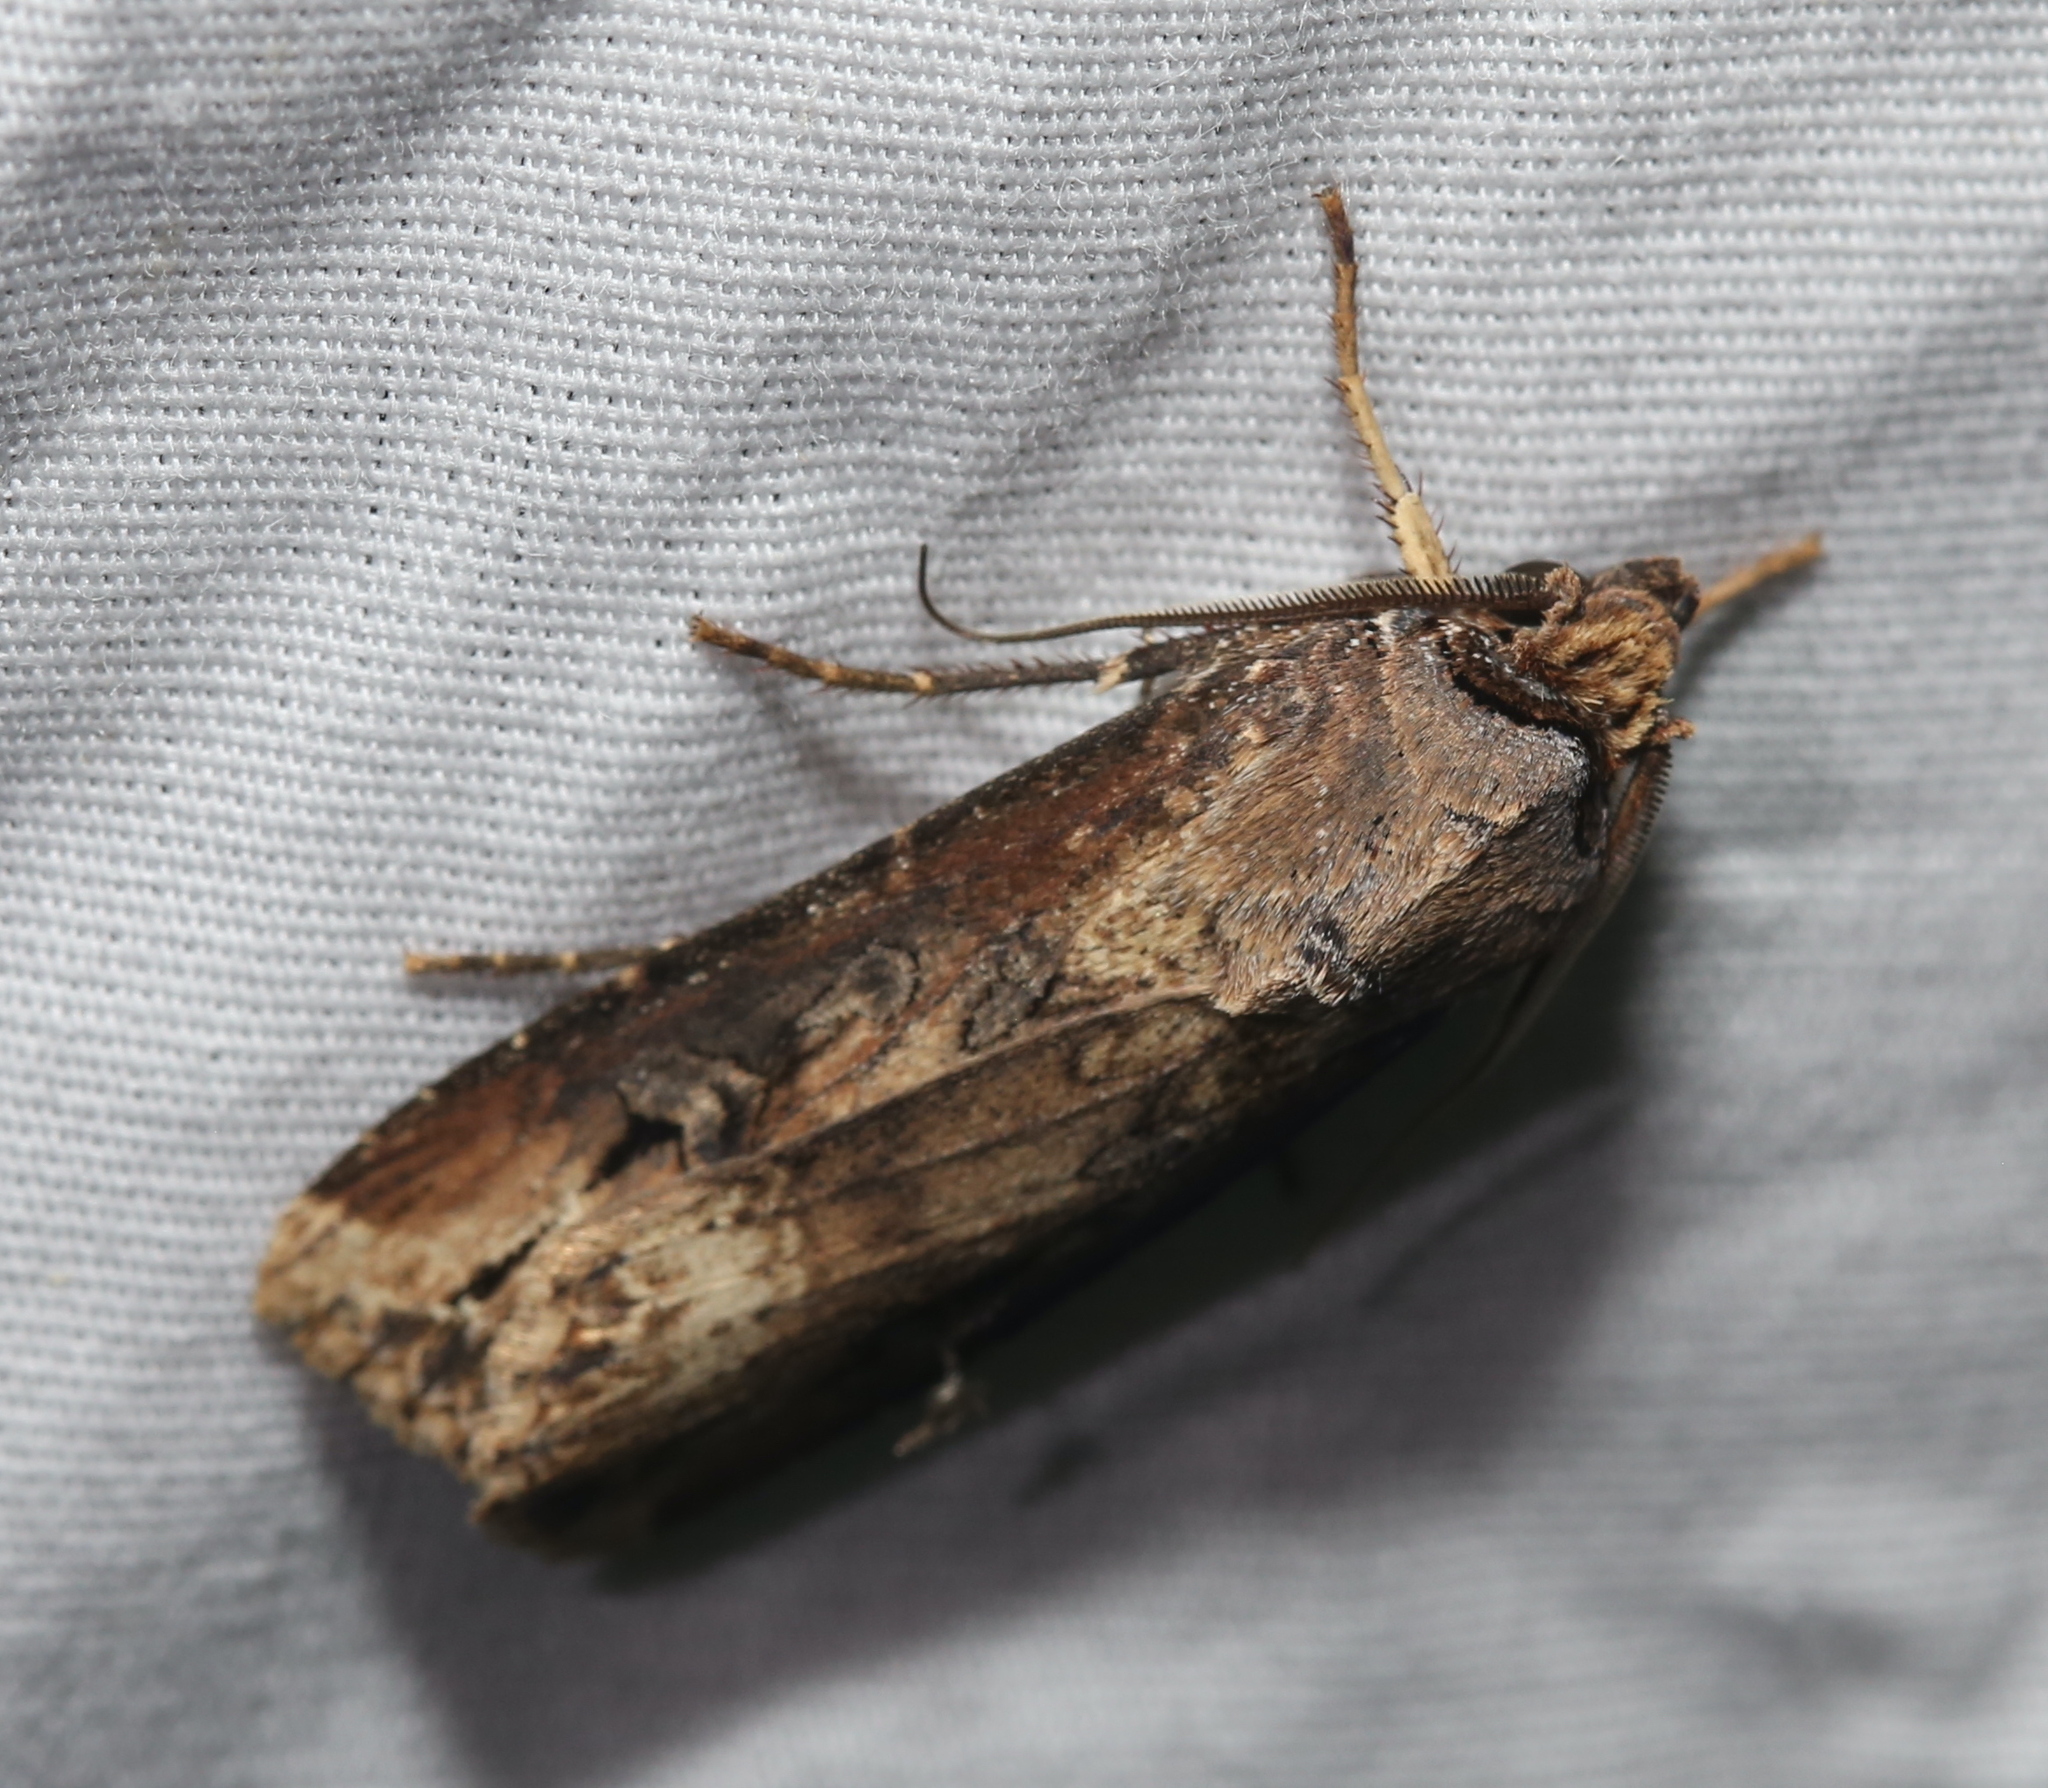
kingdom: Animalia
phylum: Arthropoda
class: Insecta
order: Lepidoptera
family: Noctuidae
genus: Agrotis
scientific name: Agrotis ipsilon
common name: Dark sword-grass
